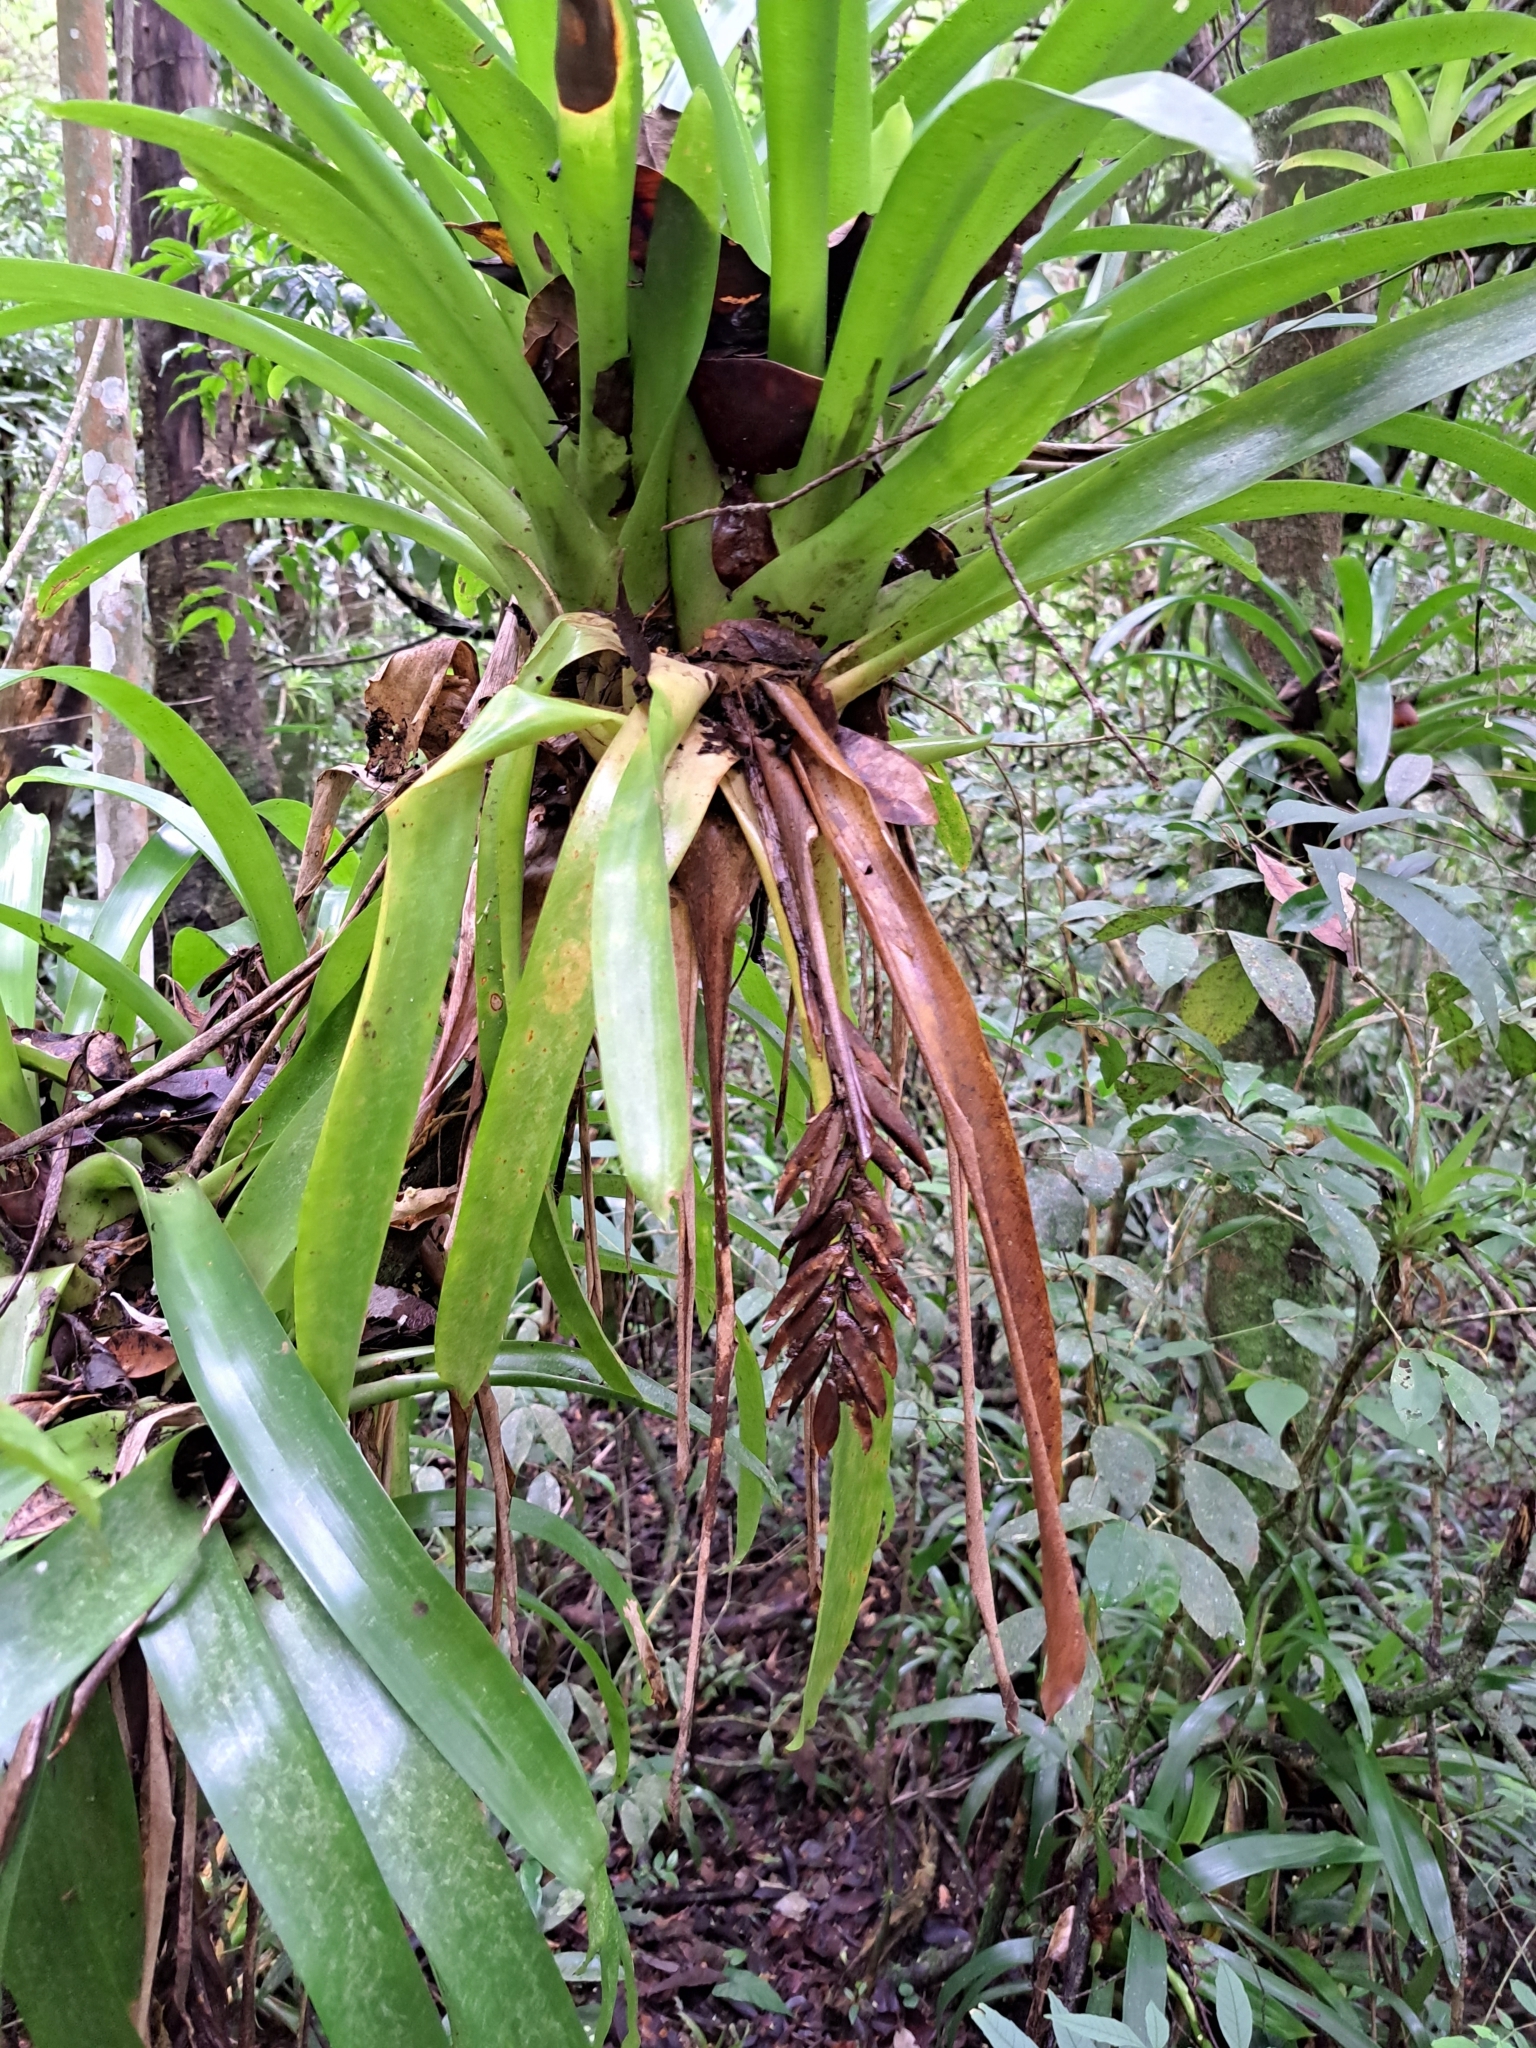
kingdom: Plantae
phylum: Tracheophyta
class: Liliopsida
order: Poales
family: Bromeliaceae
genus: Vriesea
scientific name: Vriesea paraibica
